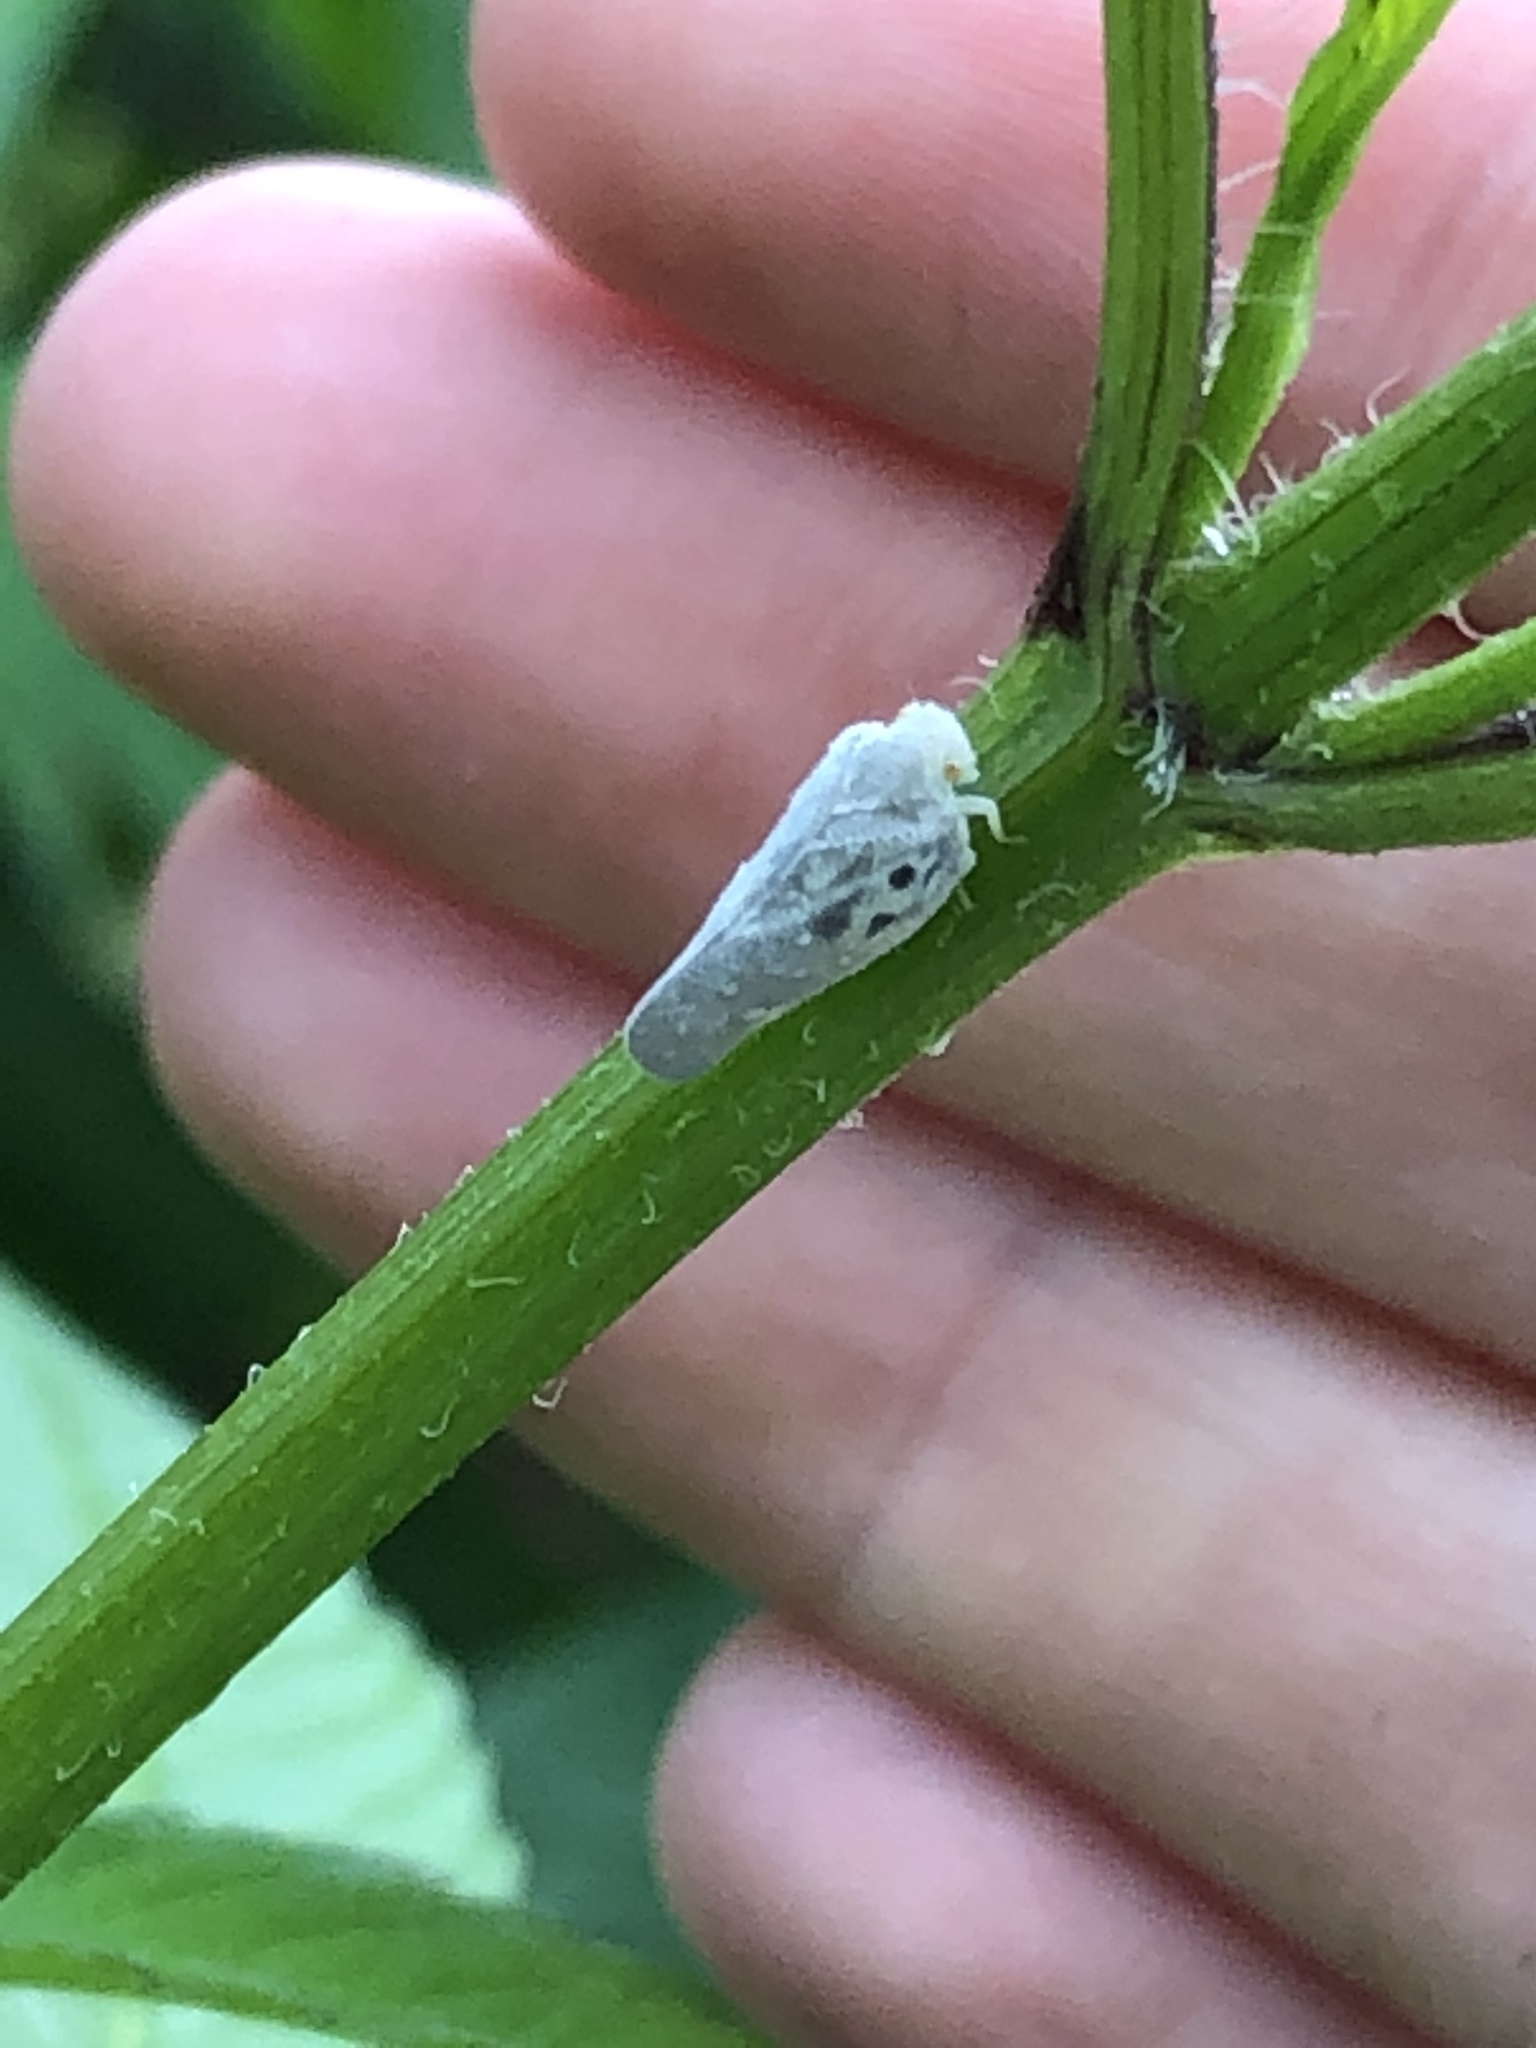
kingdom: Animalia
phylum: Arthropoda
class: Insecta
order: Hemiptera
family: Flatidae
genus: Metcalfa
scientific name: Metcalfa pruinosa
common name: Citrus flatid planthopper
